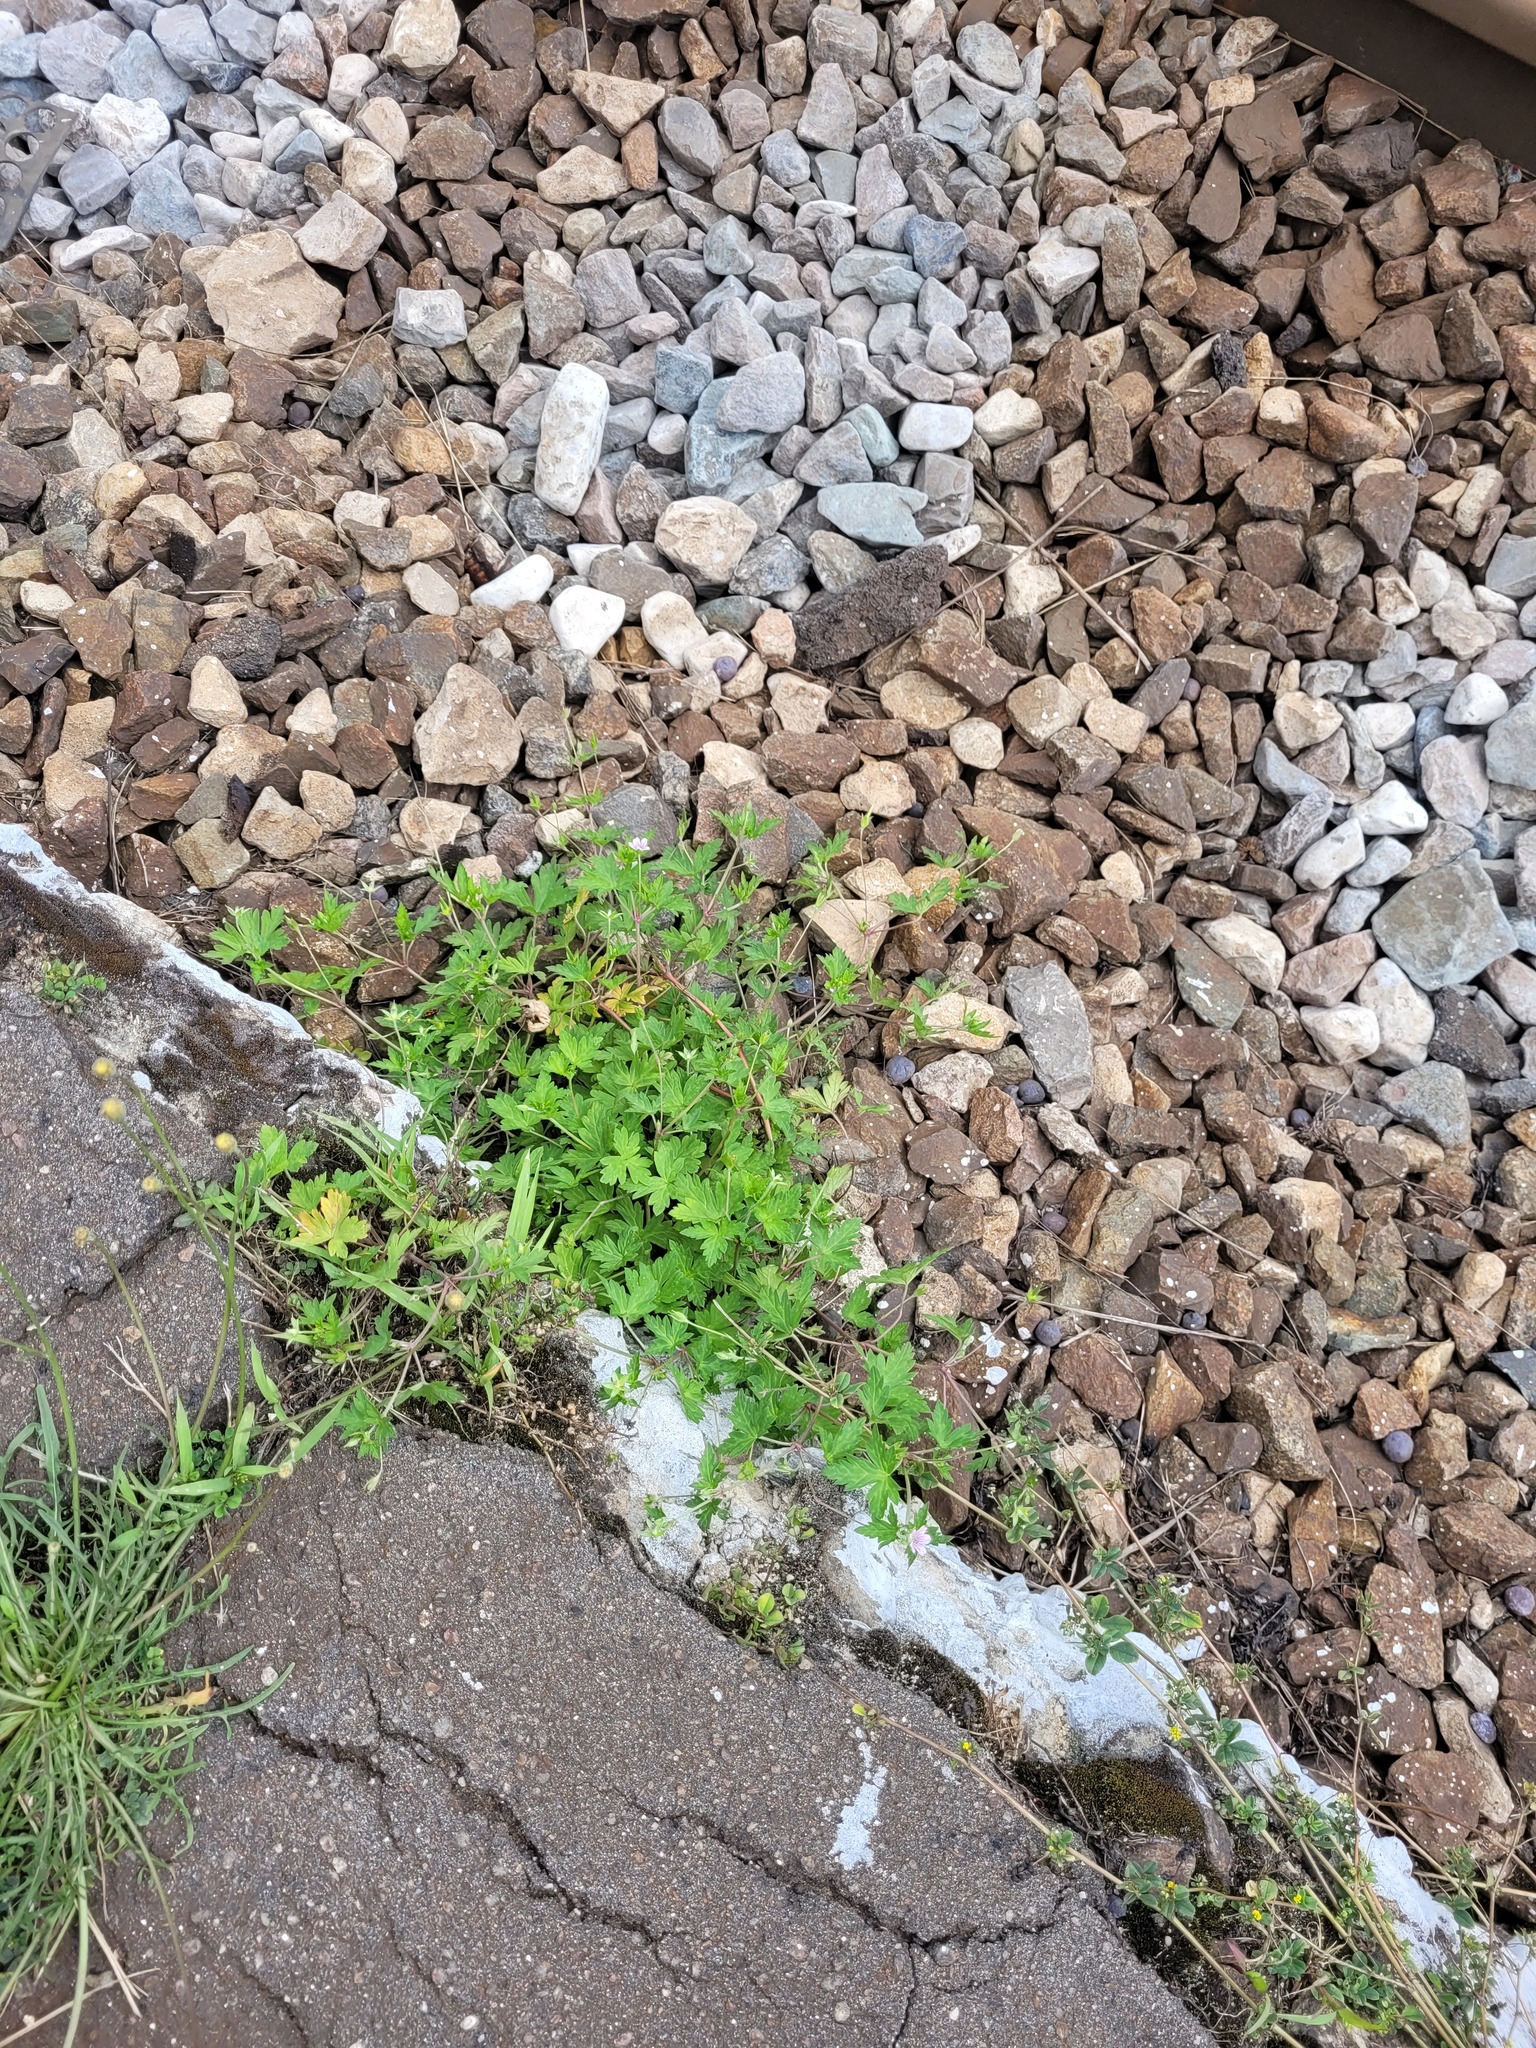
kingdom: Plantae
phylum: Tracheophyta
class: Magnoliopsida
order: Geraniales
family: Geraniaceae
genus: Geranium
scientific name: Geranium sibiricum
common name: Siberian crane's-bill
